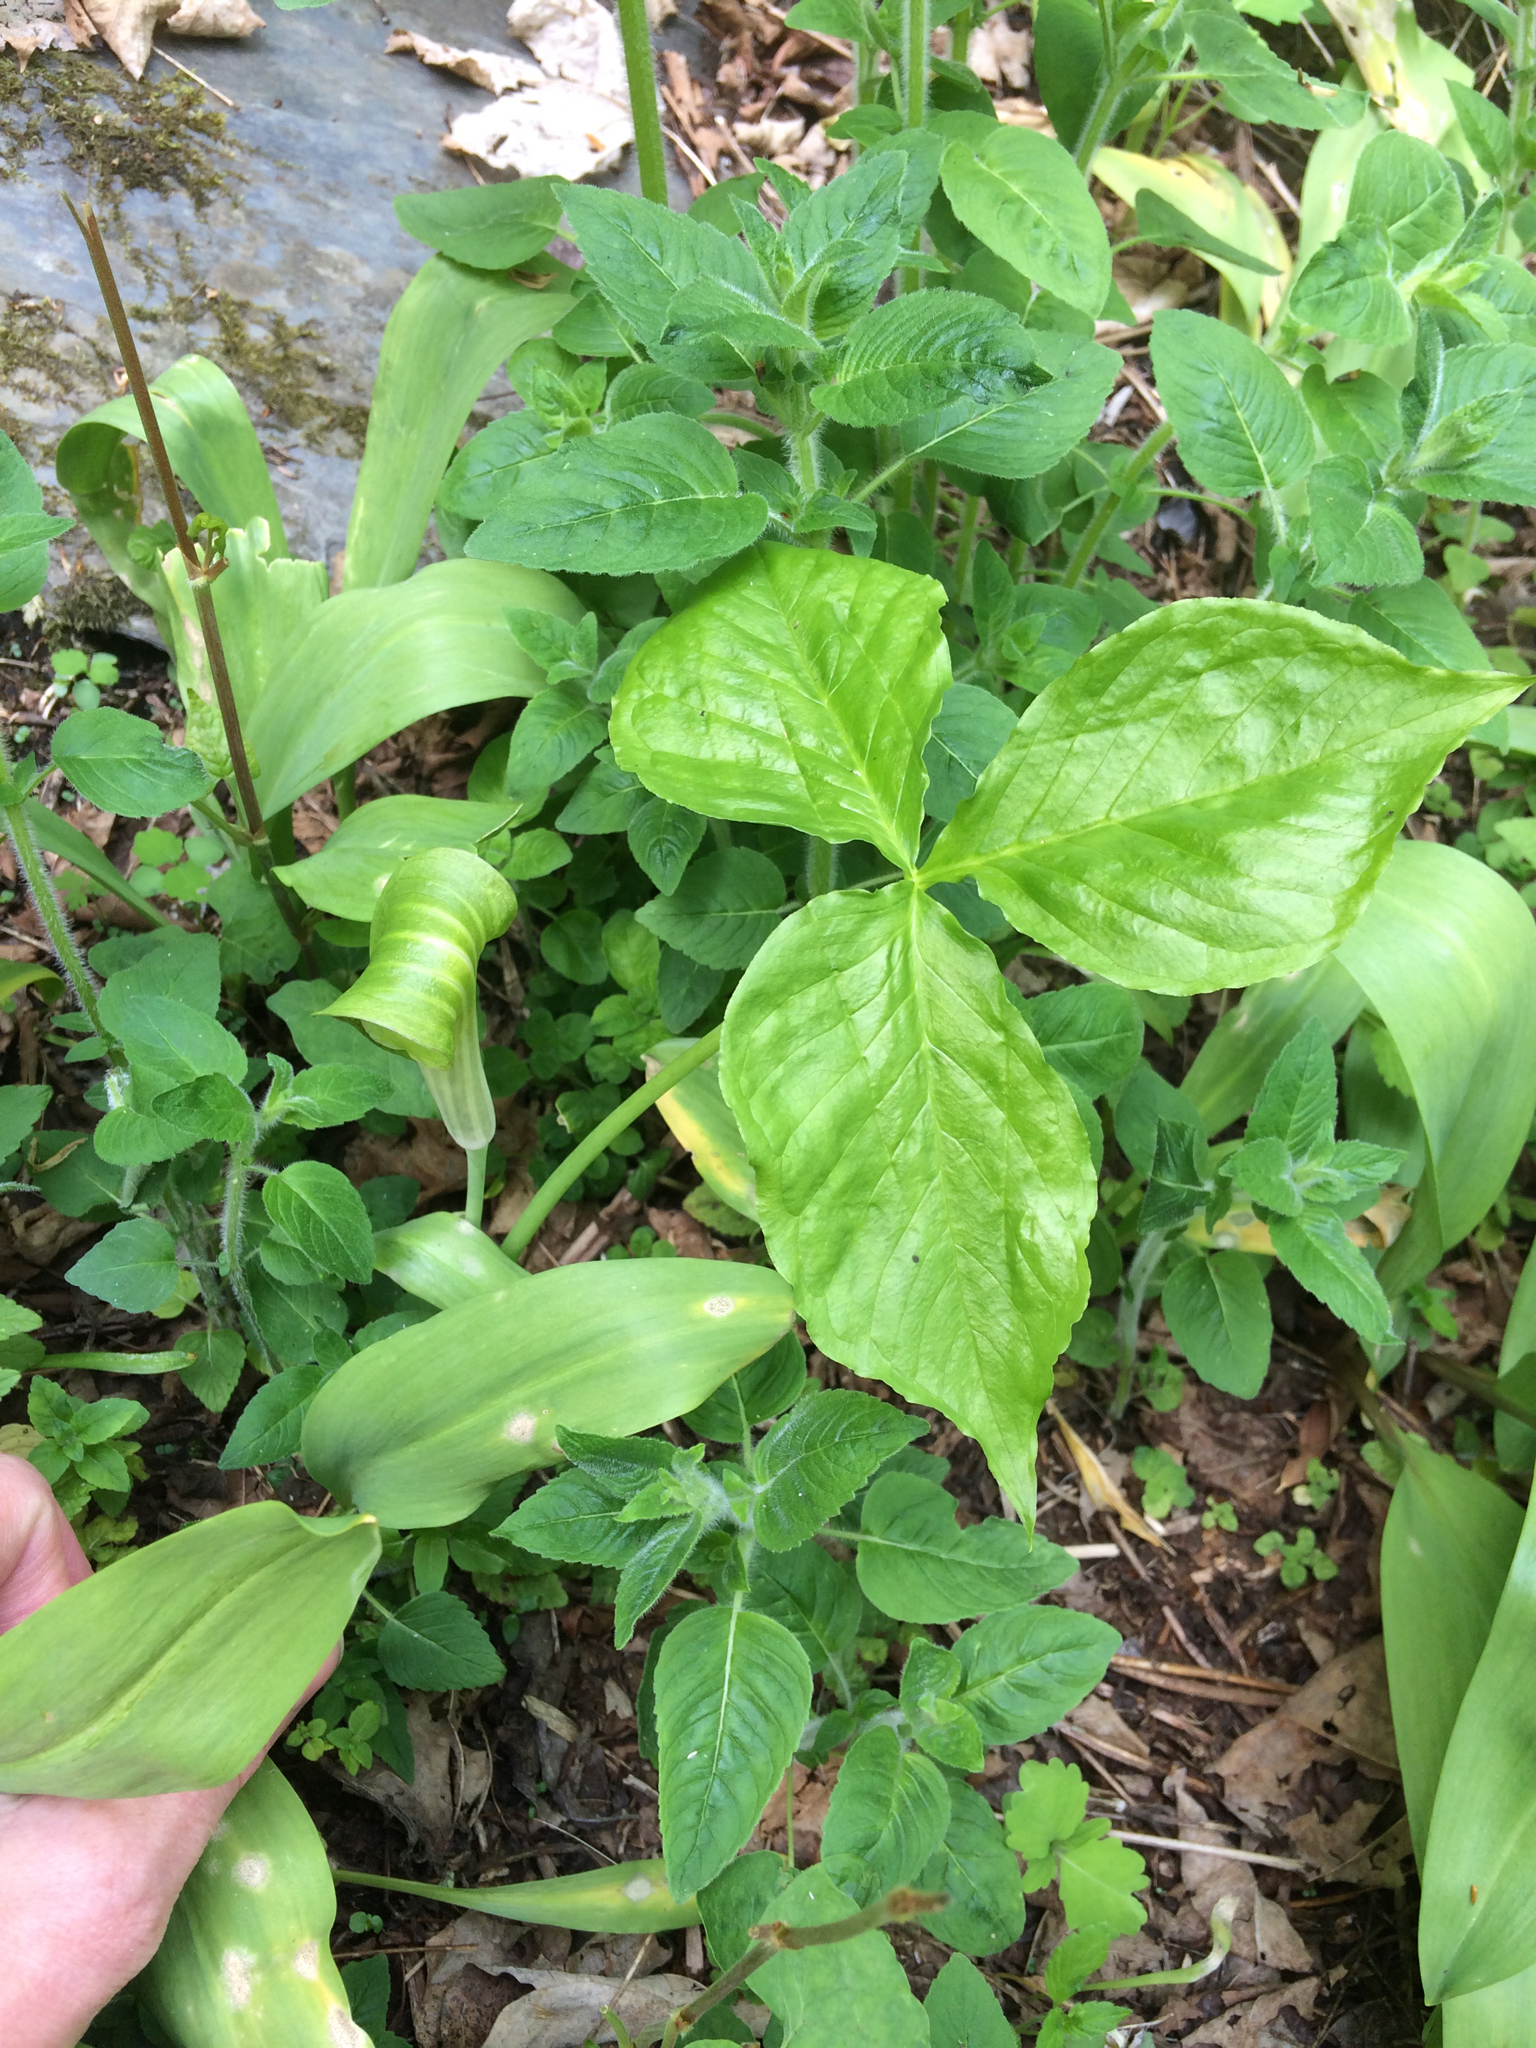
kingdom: Plantae
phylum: Tracheophyta
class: Liliopsida
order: Alismatales
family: Araceae
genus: Arisaema
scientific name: Arisaema triphyllum
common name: Jack-in-the-pulpit
